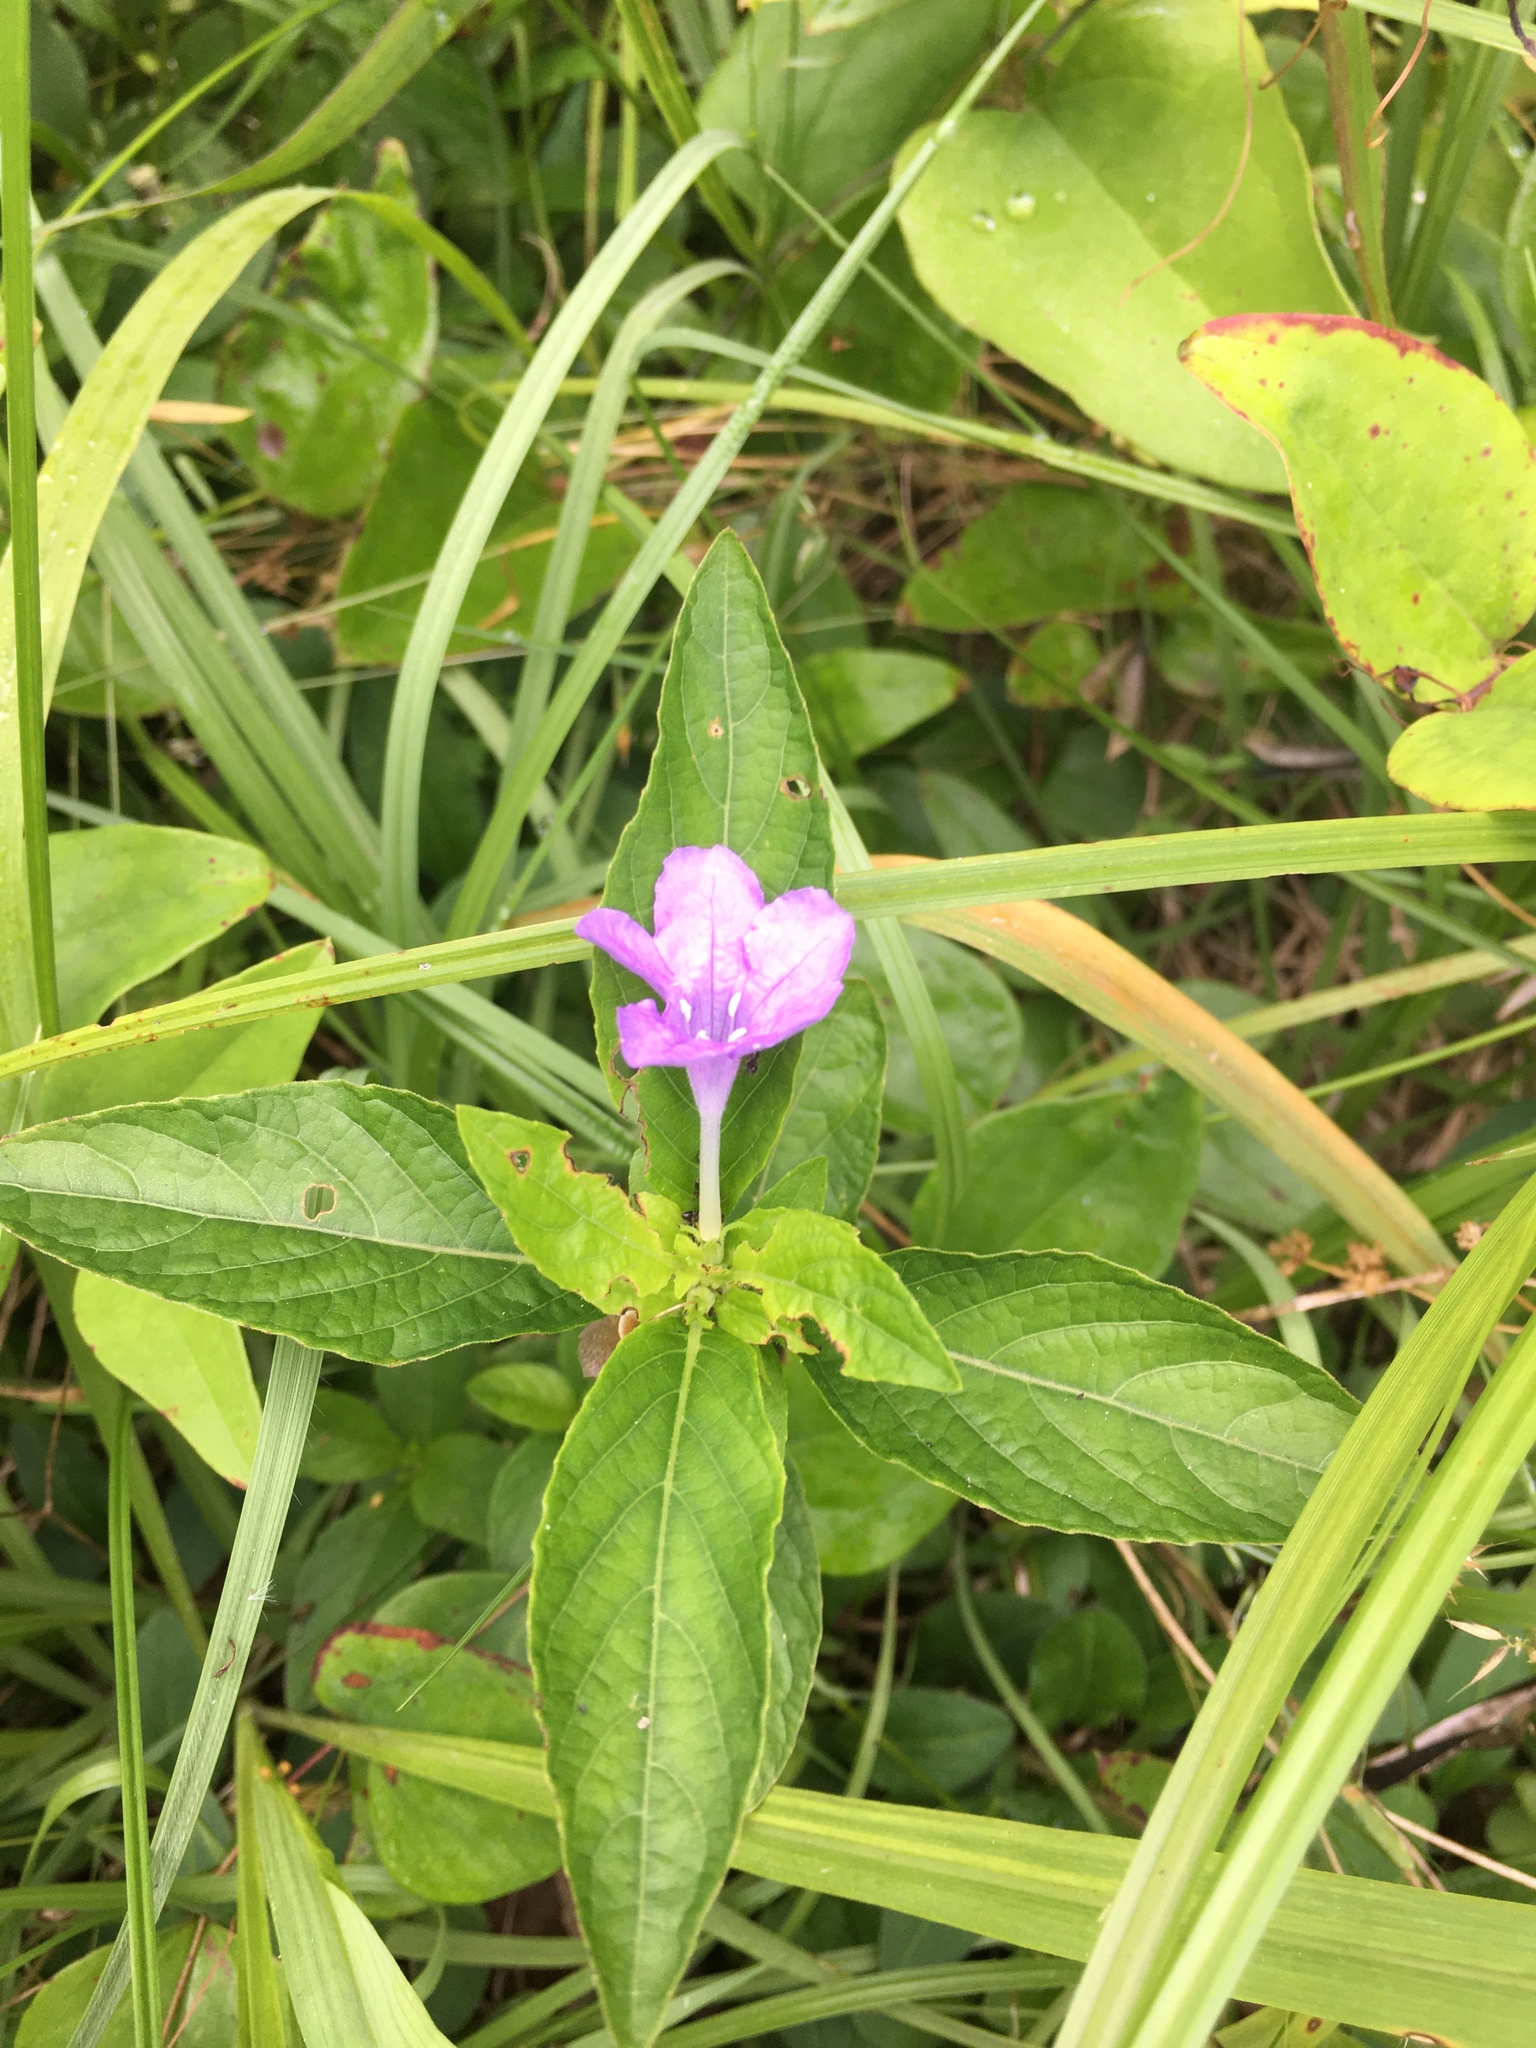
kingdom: Plantae
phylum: Tracheophyta
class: Magnoliopsida
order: Lamiales
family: Acanthaceae
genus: Ruellia
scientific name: Ruellia caroliniensis
